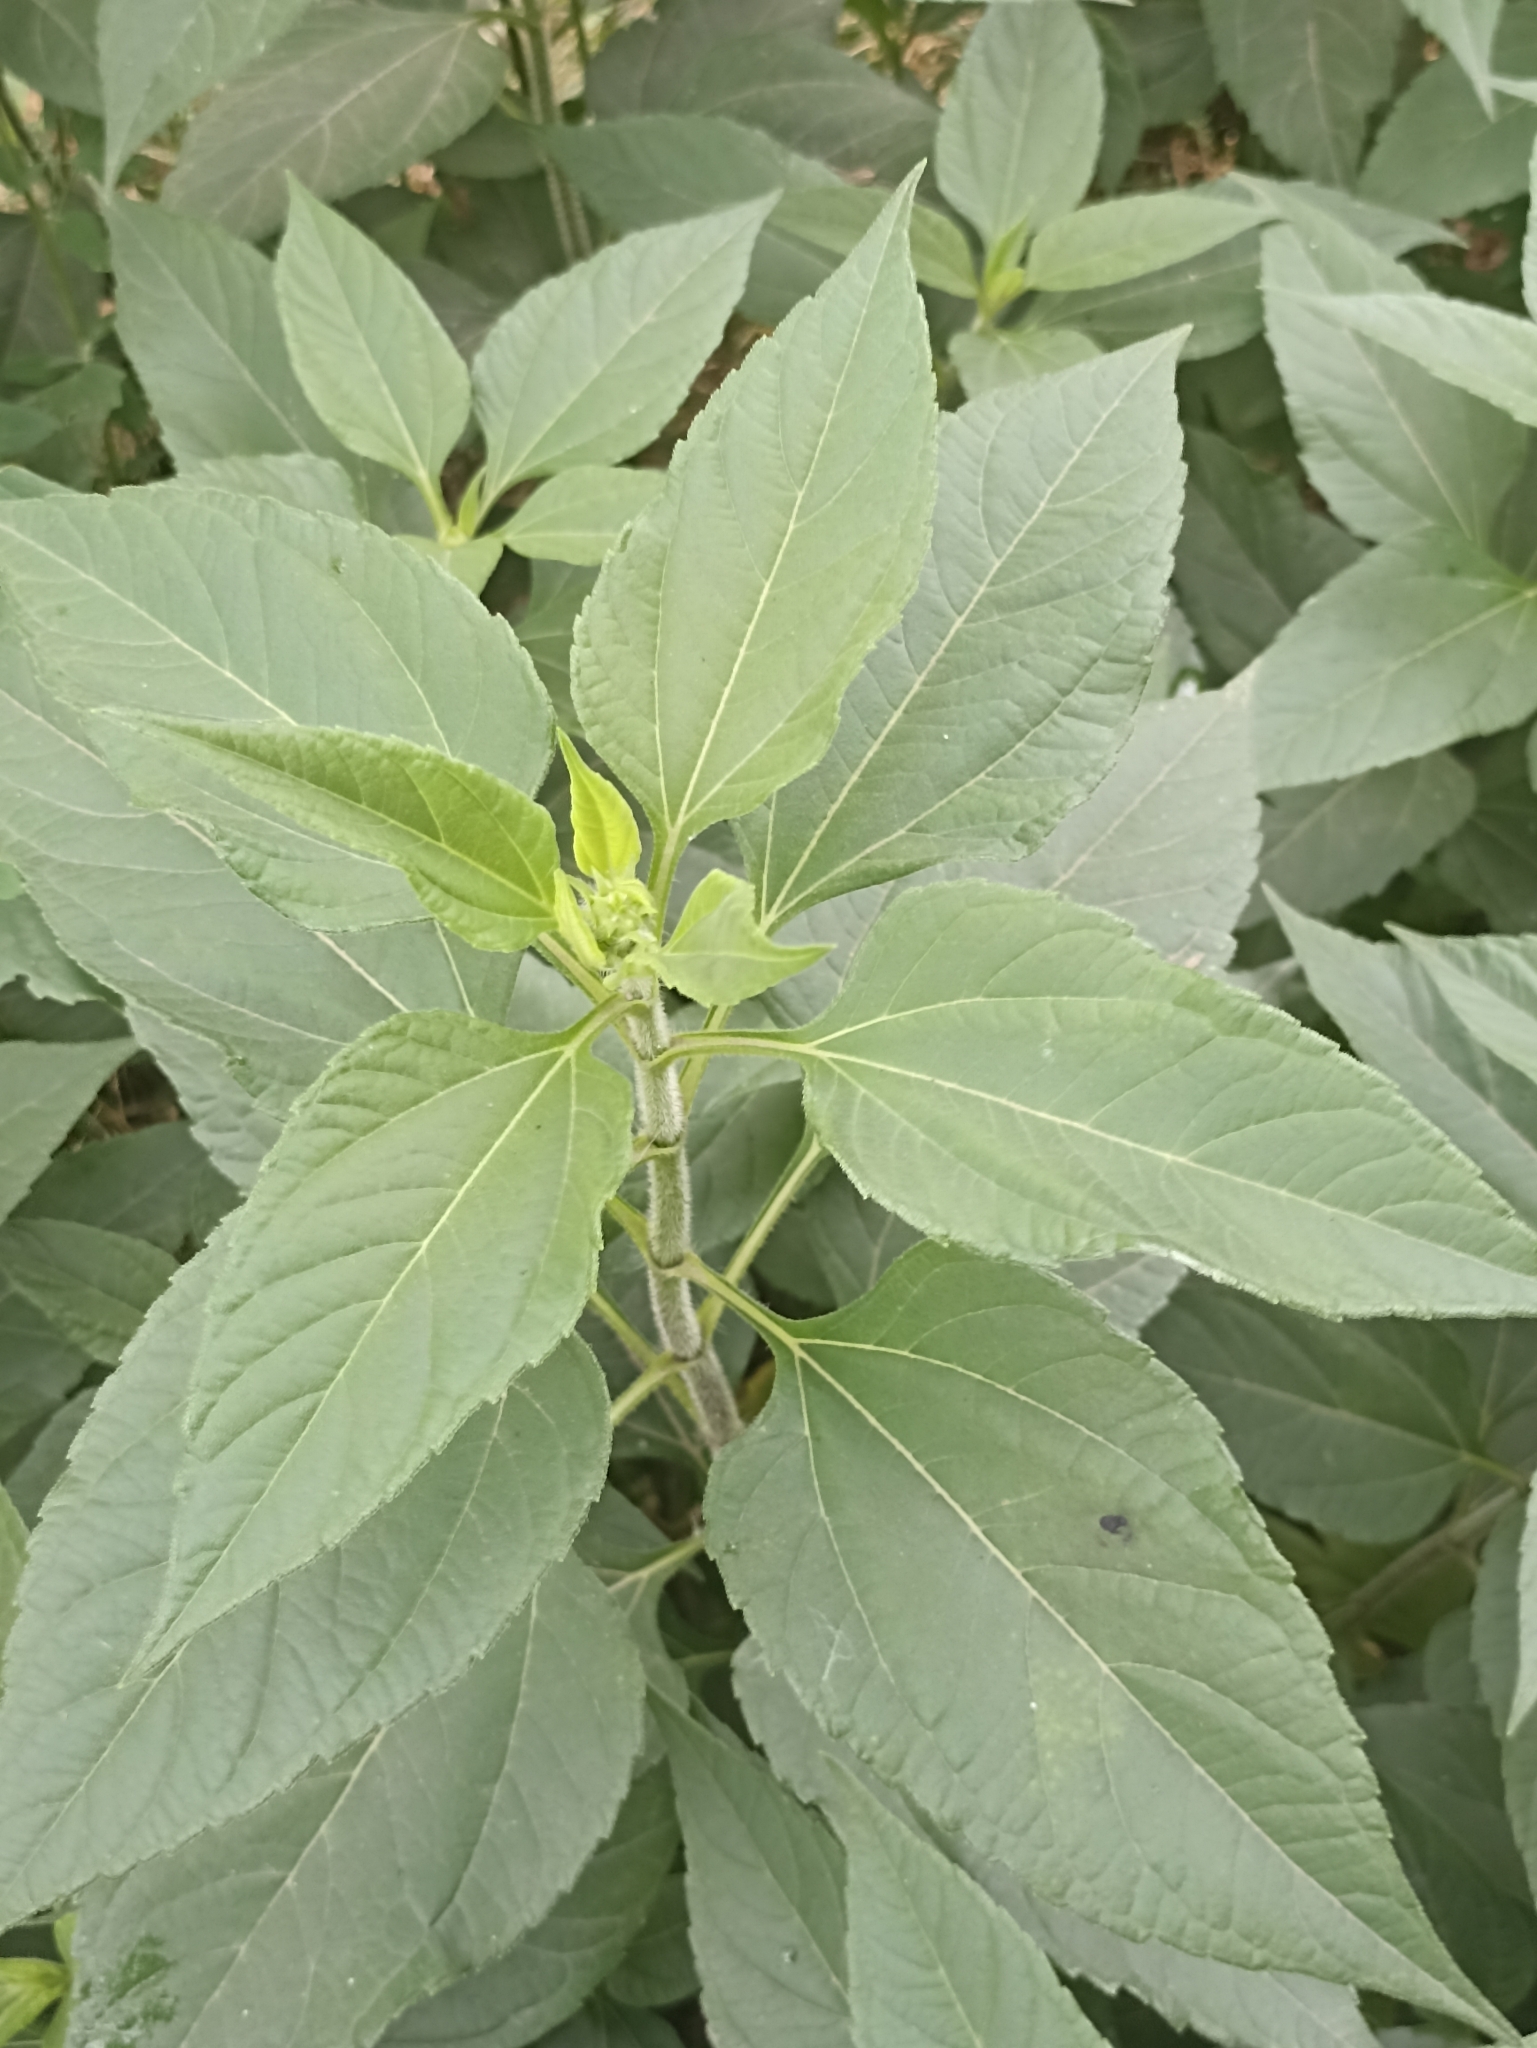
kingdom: Plantae
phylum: Tracheophyta
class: Magnoliopsida
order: Asterales
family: Asteraceae
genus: Helianthus
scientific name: Helianthus tuberosus
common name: Jerusalem artichoke
